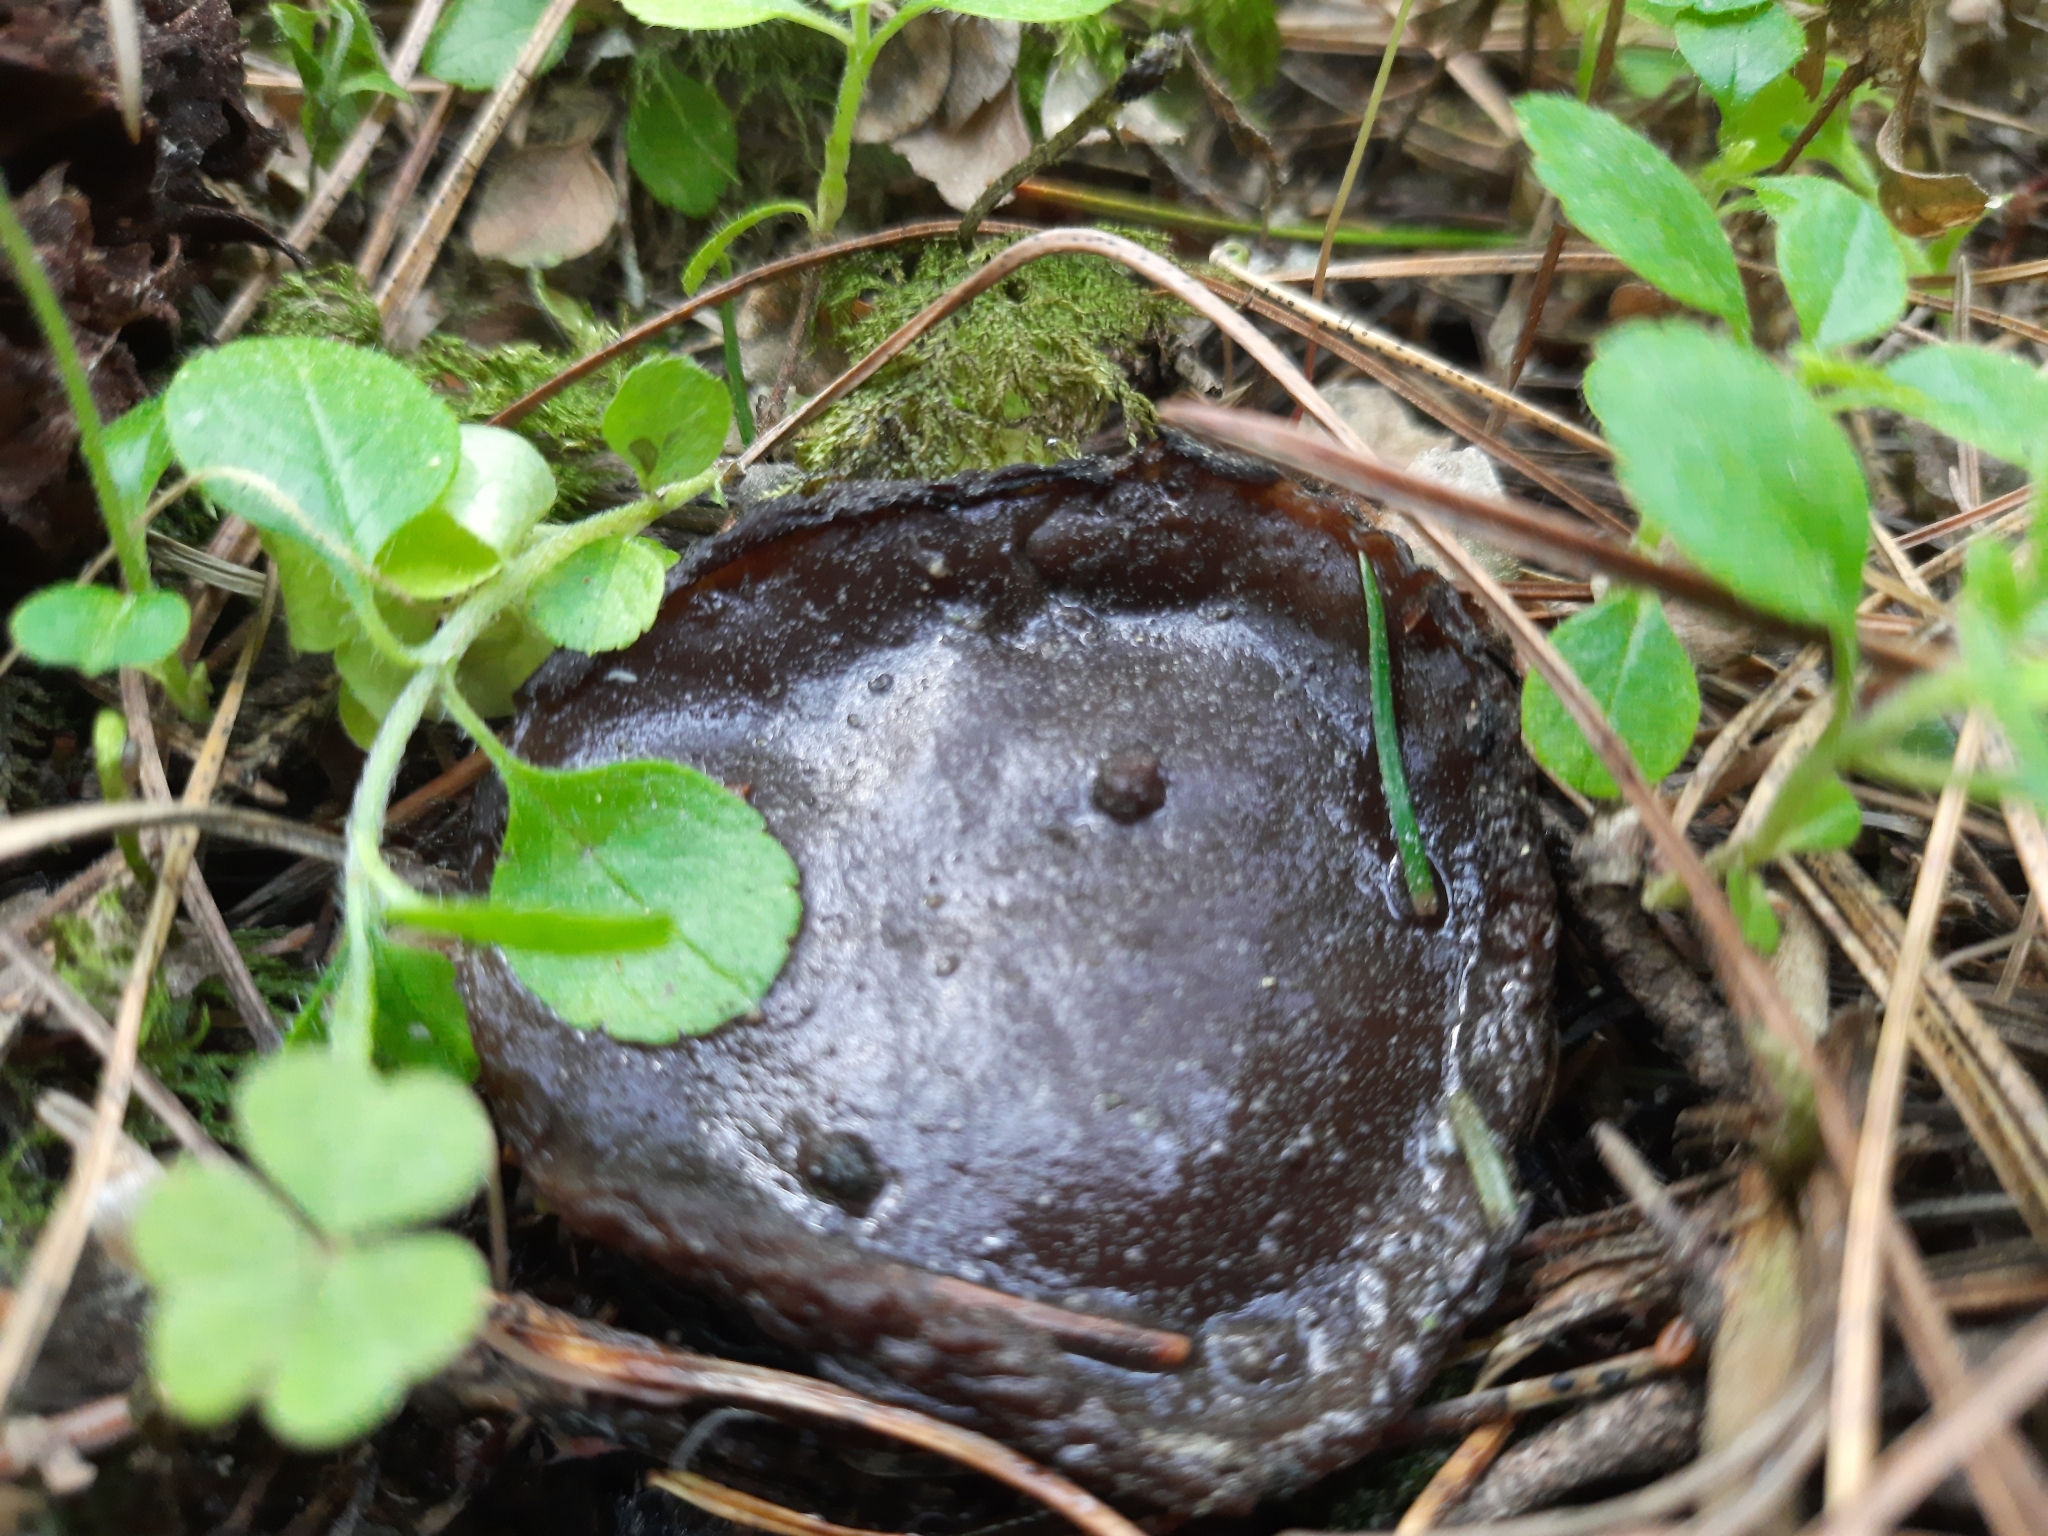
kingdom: Fungi
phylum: Ascomycota
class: Pezizomycetes
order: Pezizales
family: Sarcosomataceae
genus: Sarcosoma
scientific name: Sarcosoma globosum
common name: Charred-pancake cup
